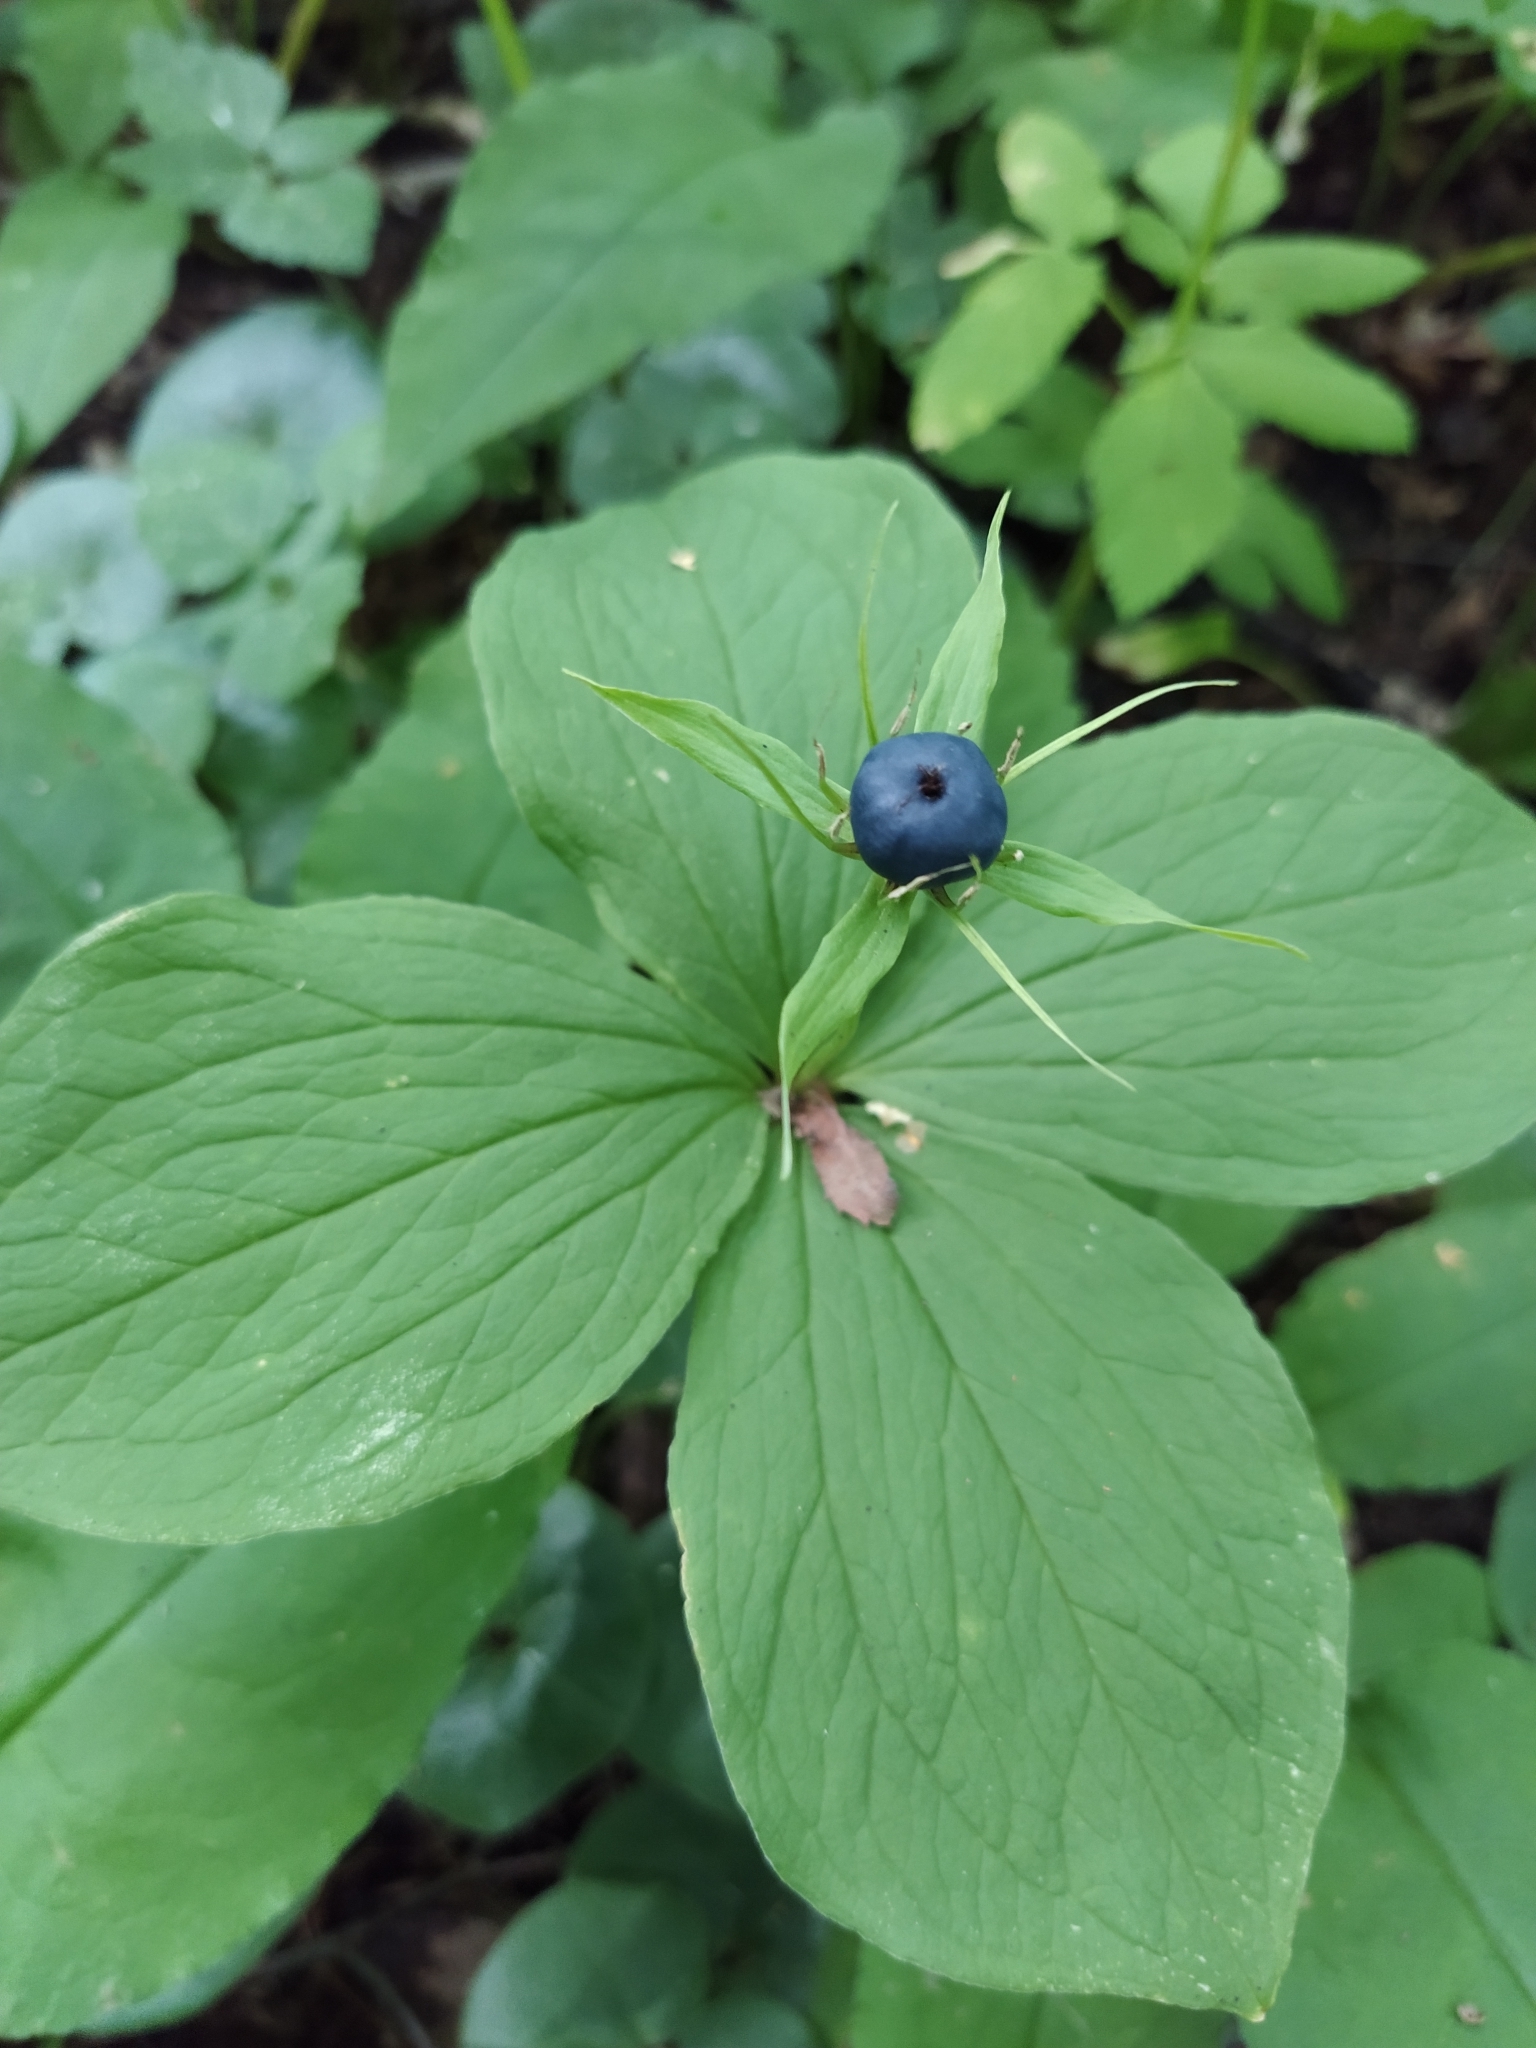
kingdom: Plantae
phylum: Tracheophyta
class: Liliopsida
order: Liliales
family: Melanthiaceae
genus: Paris
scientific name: Paris quadrifolia
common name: Herb-paris
